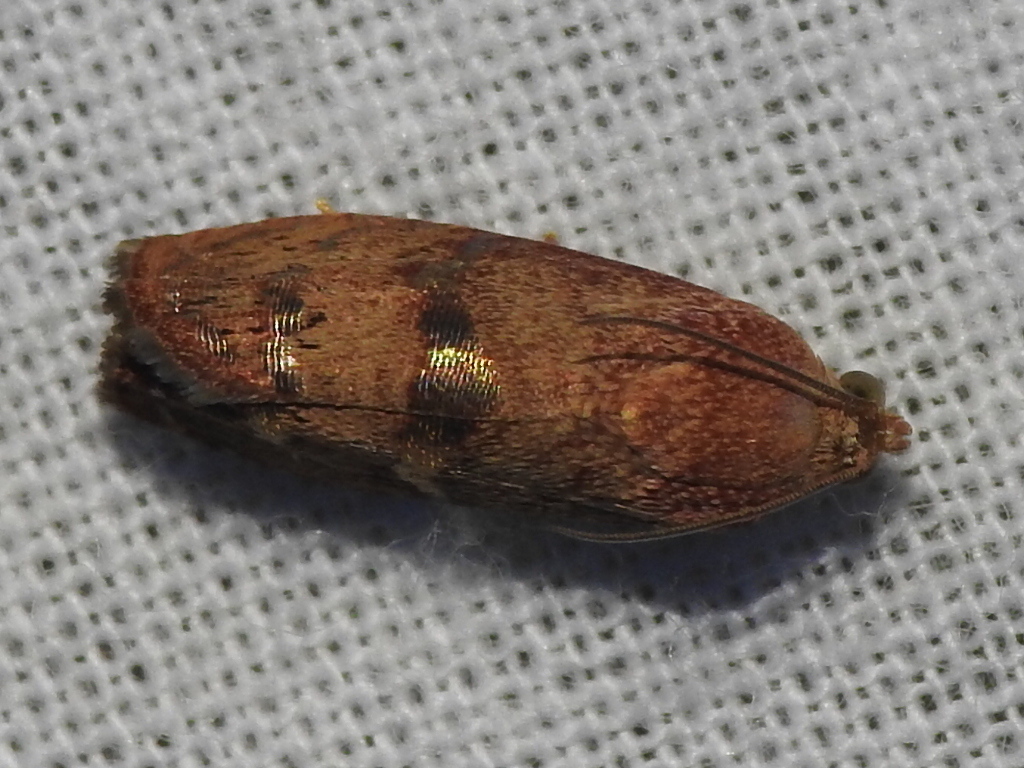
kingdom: Animalia
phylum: Arthropoda
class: Insecta
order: Lepidoptera
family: Tortricidae
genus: Cydia
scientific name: Cydia latiferreana
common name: Filbertworm moth
